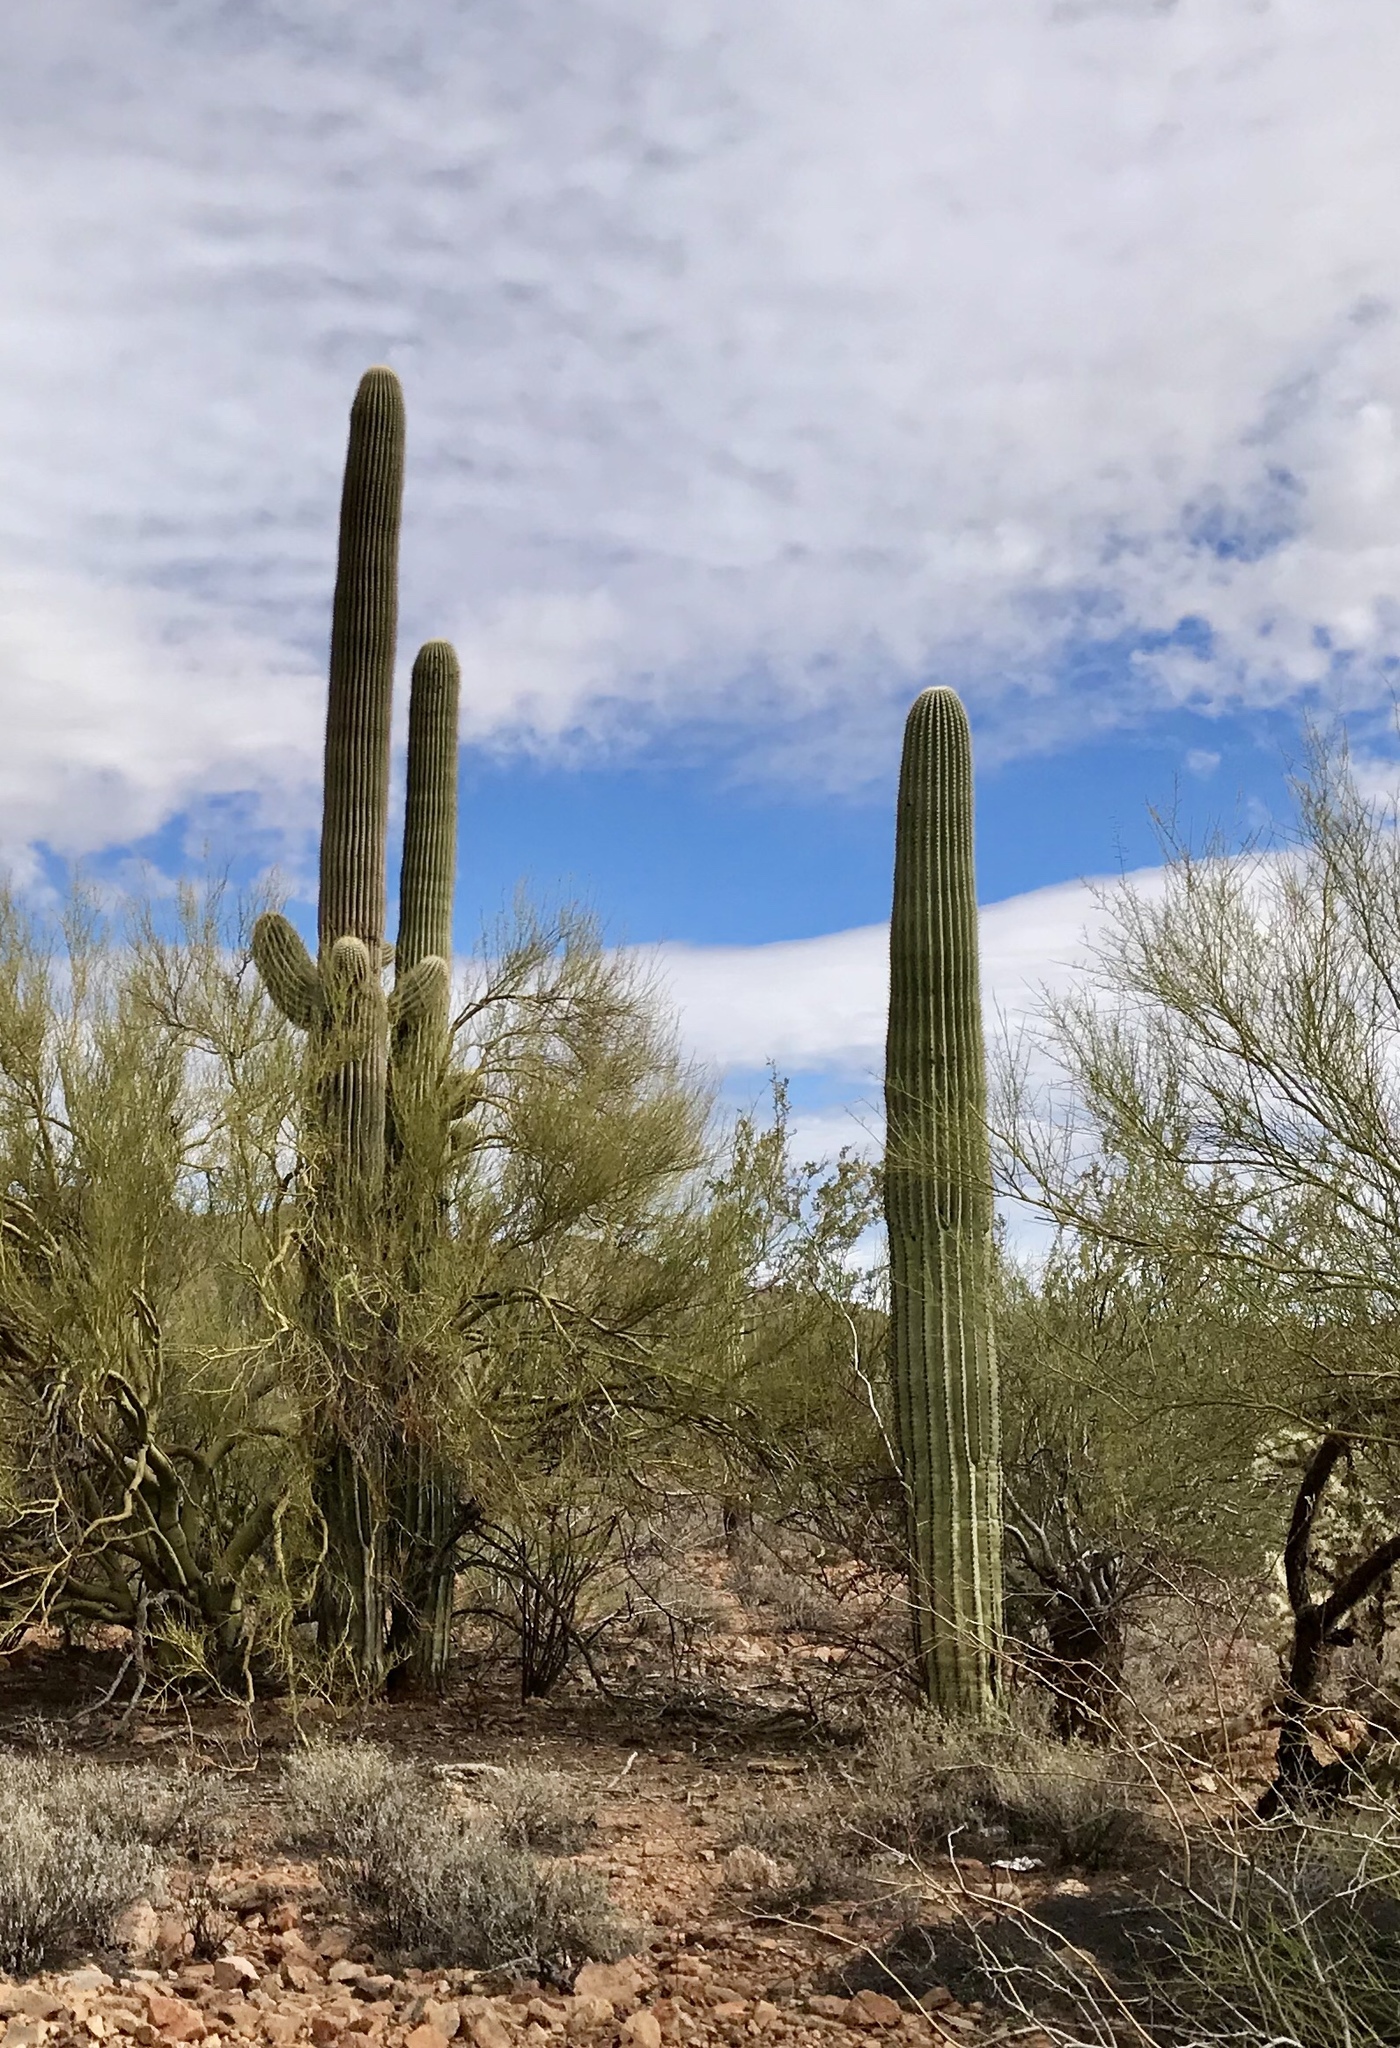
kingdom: Plantae
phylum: Tracheophyta
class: Magnoliopsida
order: Caryophyllales
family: Cactaceae
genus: Carnegiea
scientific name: Carnegiea gigantea
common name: Saguaro
